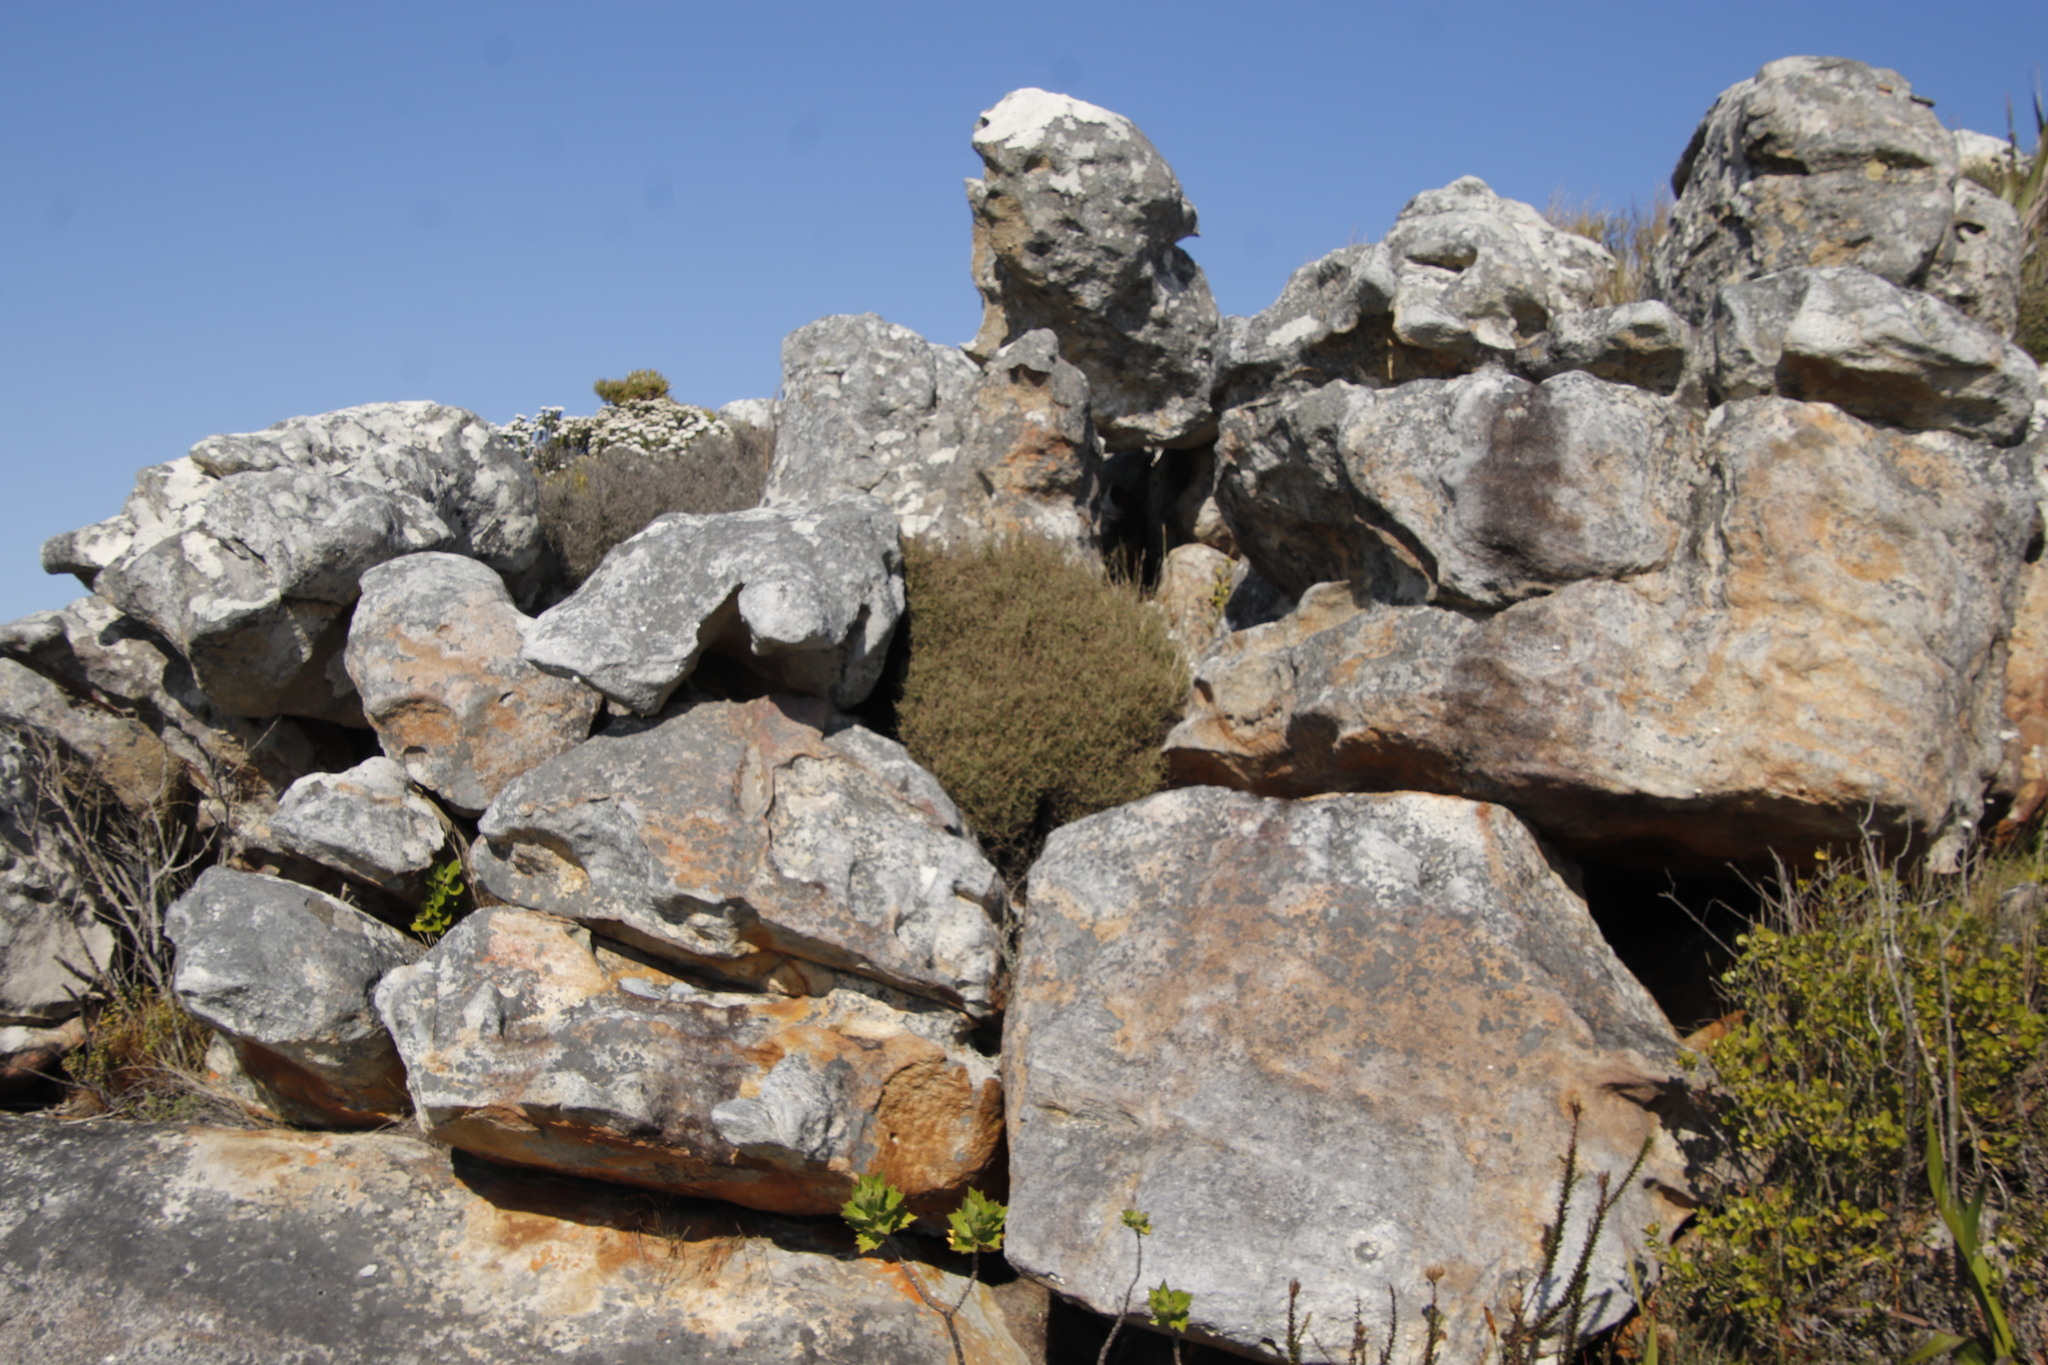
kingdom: Plantae
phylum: Tracheophyta
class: Magnoliopsida
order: Asterales
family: Asteraceae
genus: Myrovernix
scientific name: Myrovernix scaber
